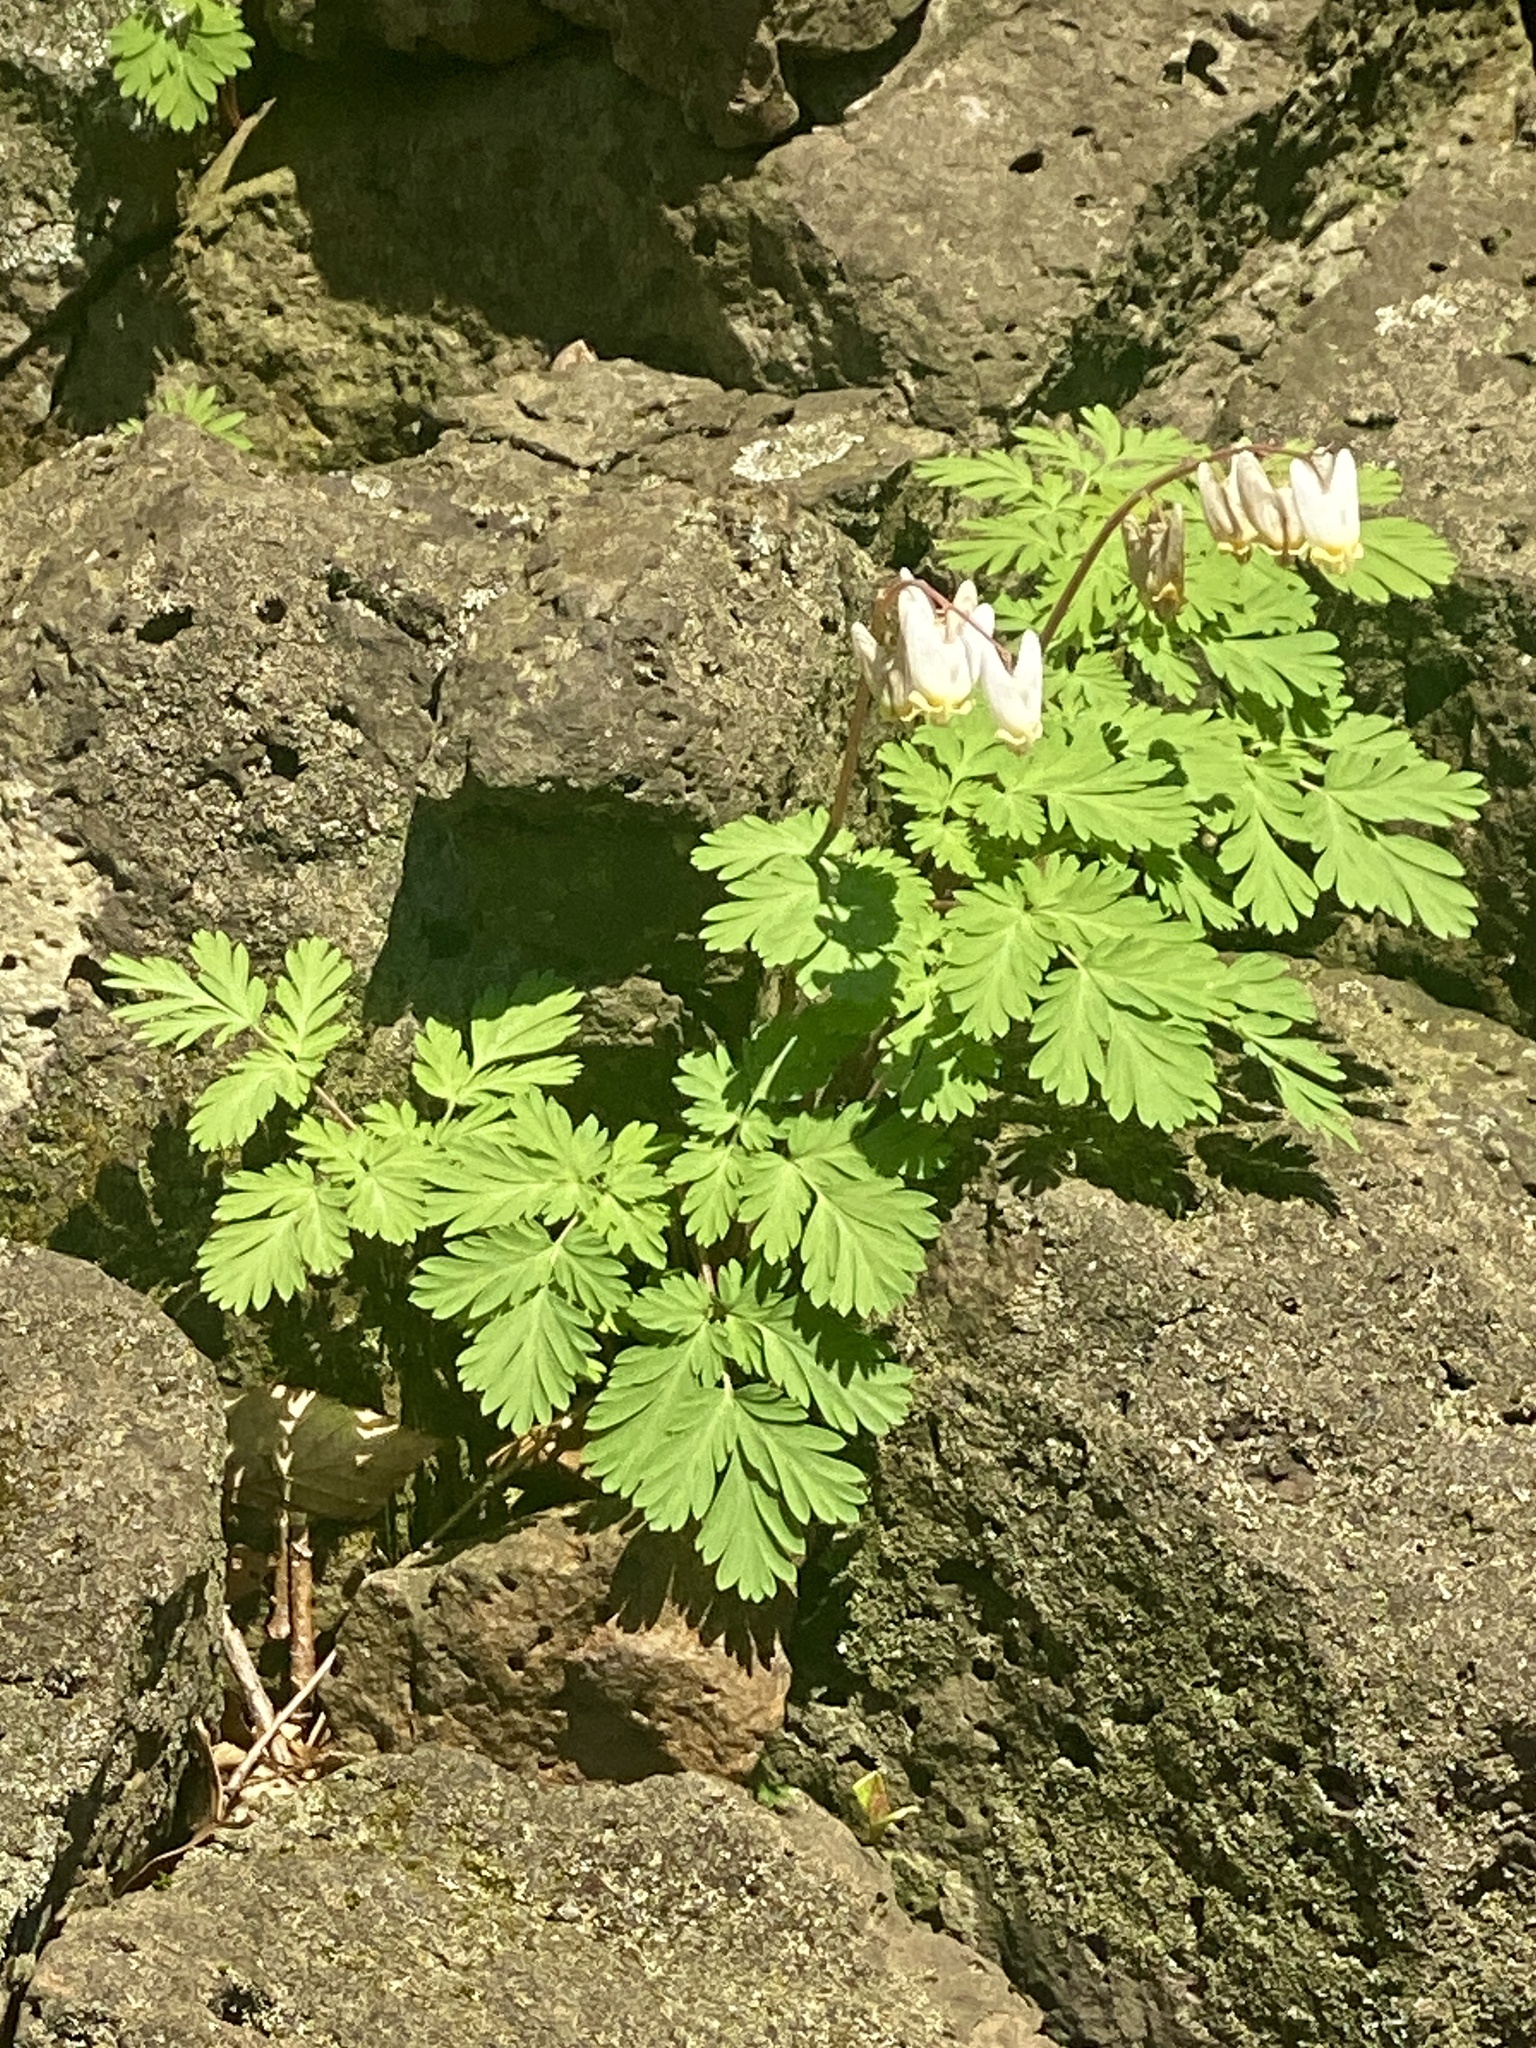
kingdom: Plantae
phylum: Tracheophyta
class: Magnoliopsida
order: Ranunculales
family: Papaveraceae
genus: Dicentra
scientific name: Dicentra cucullaria
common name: Dutchman's breeches
